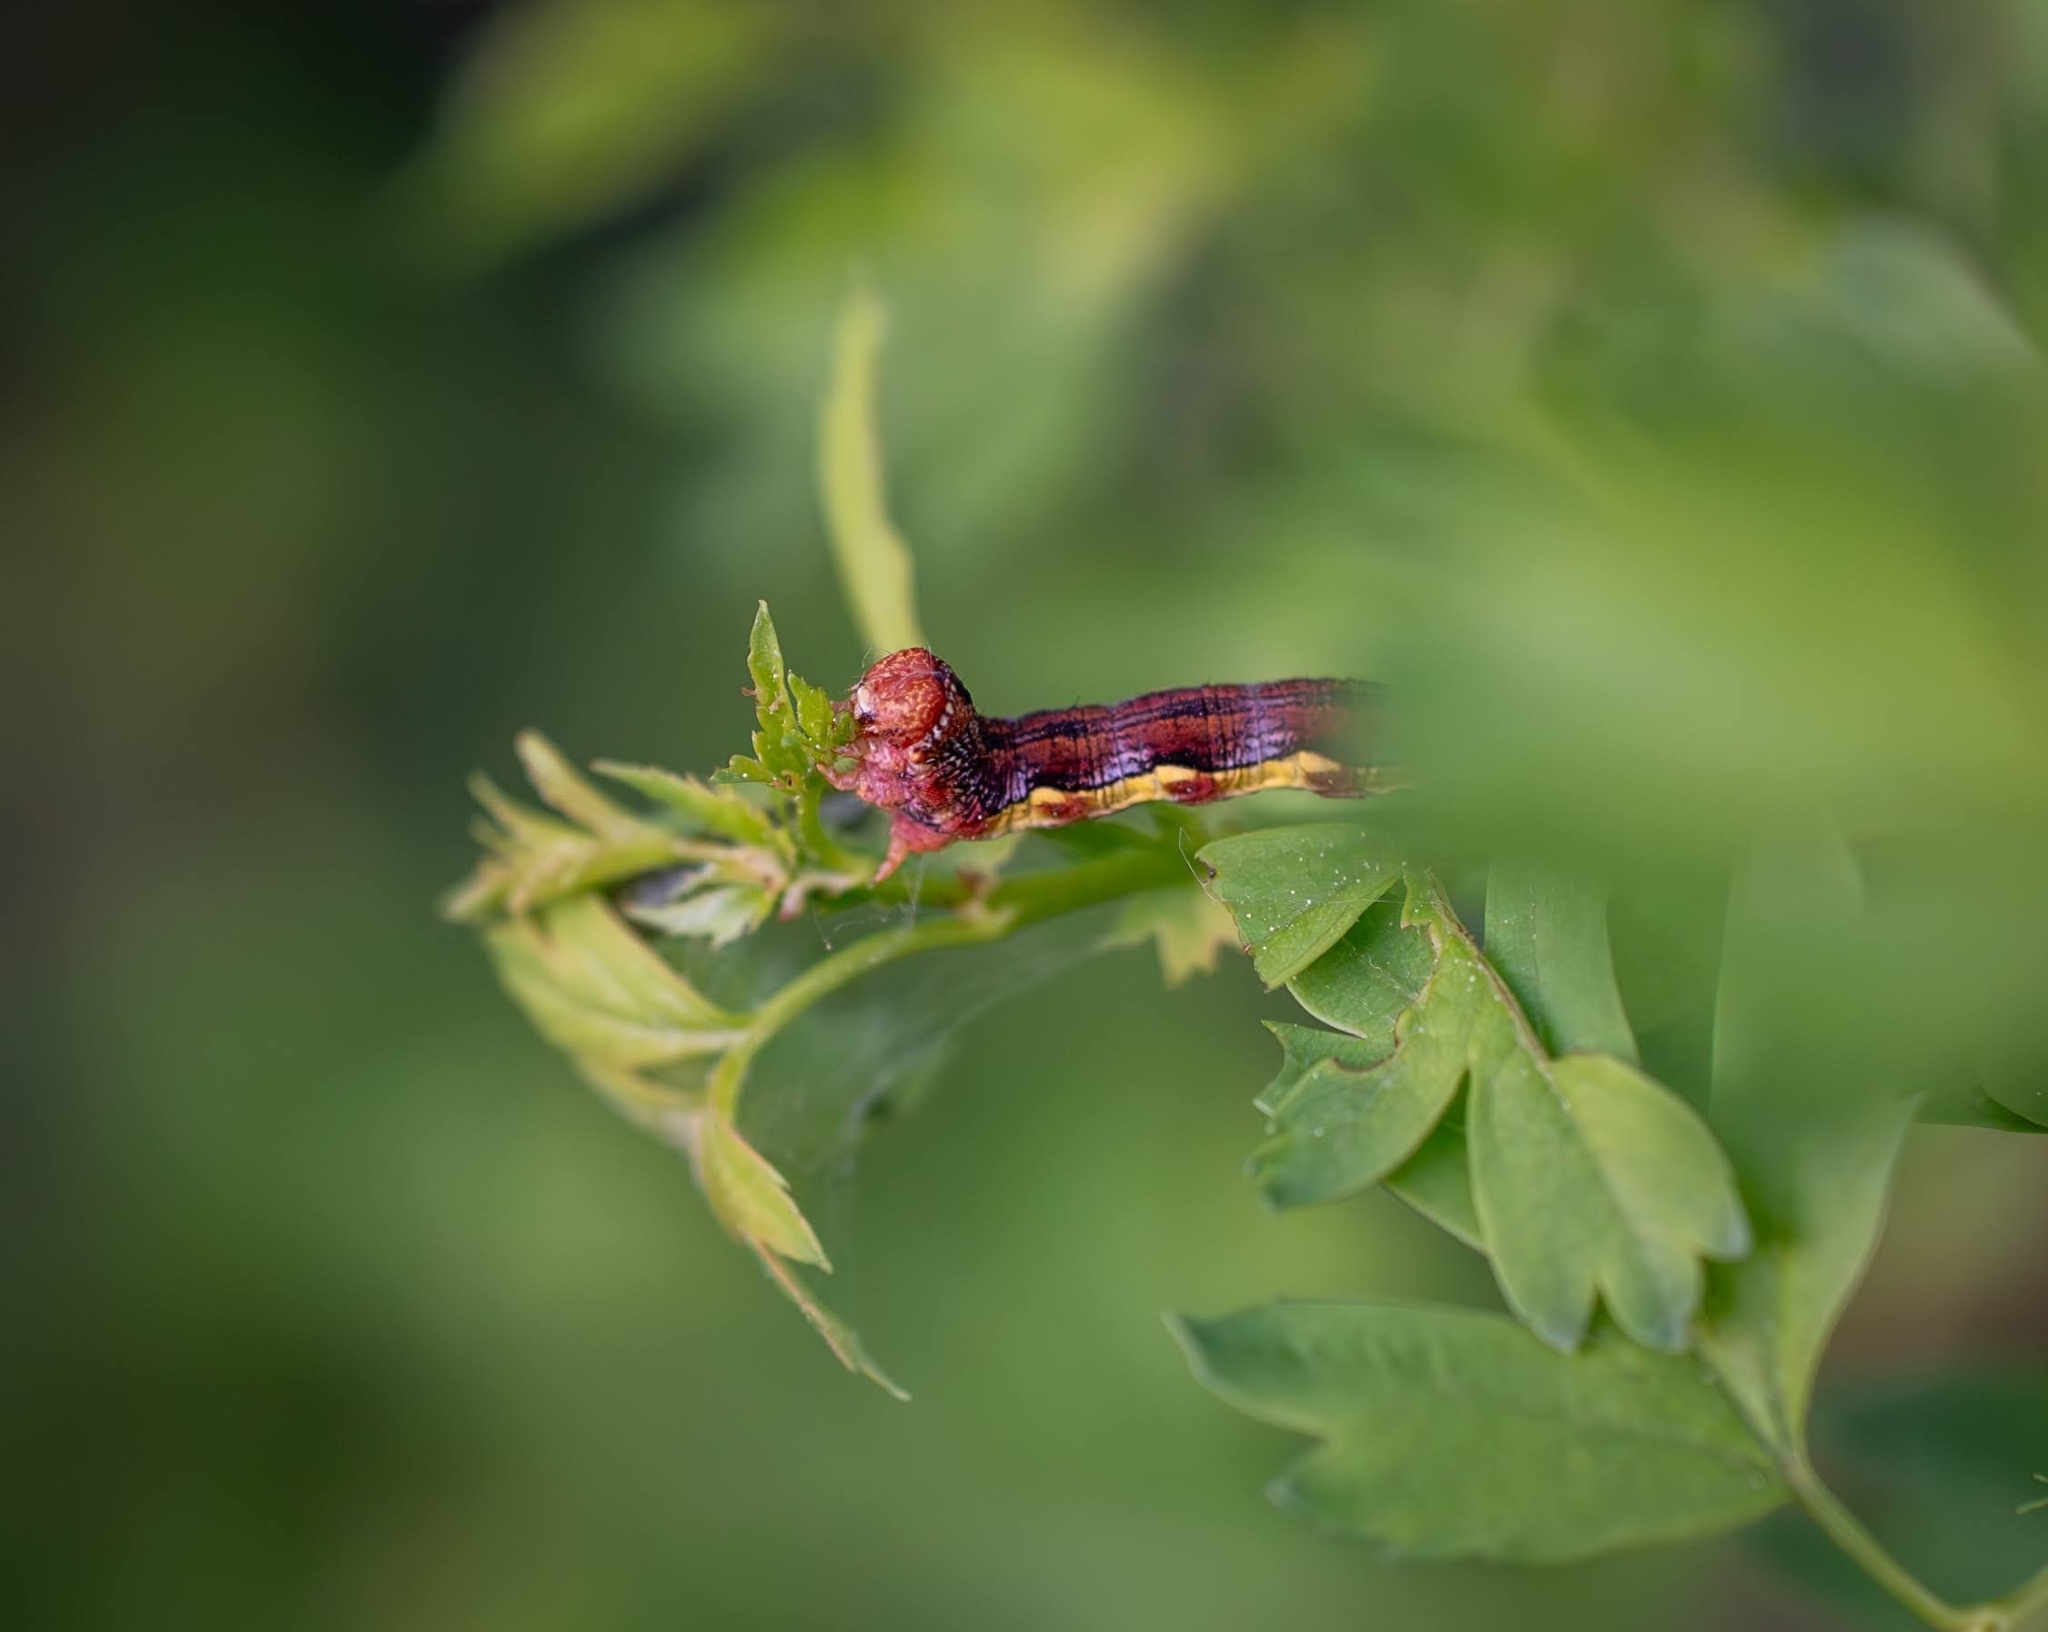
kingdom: Animalia
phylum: Arthropoda
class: Insecta
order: Lepidoptera
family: Geometridae
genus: Erannis
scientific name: Erannis defoliaria
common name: Mottled umber
